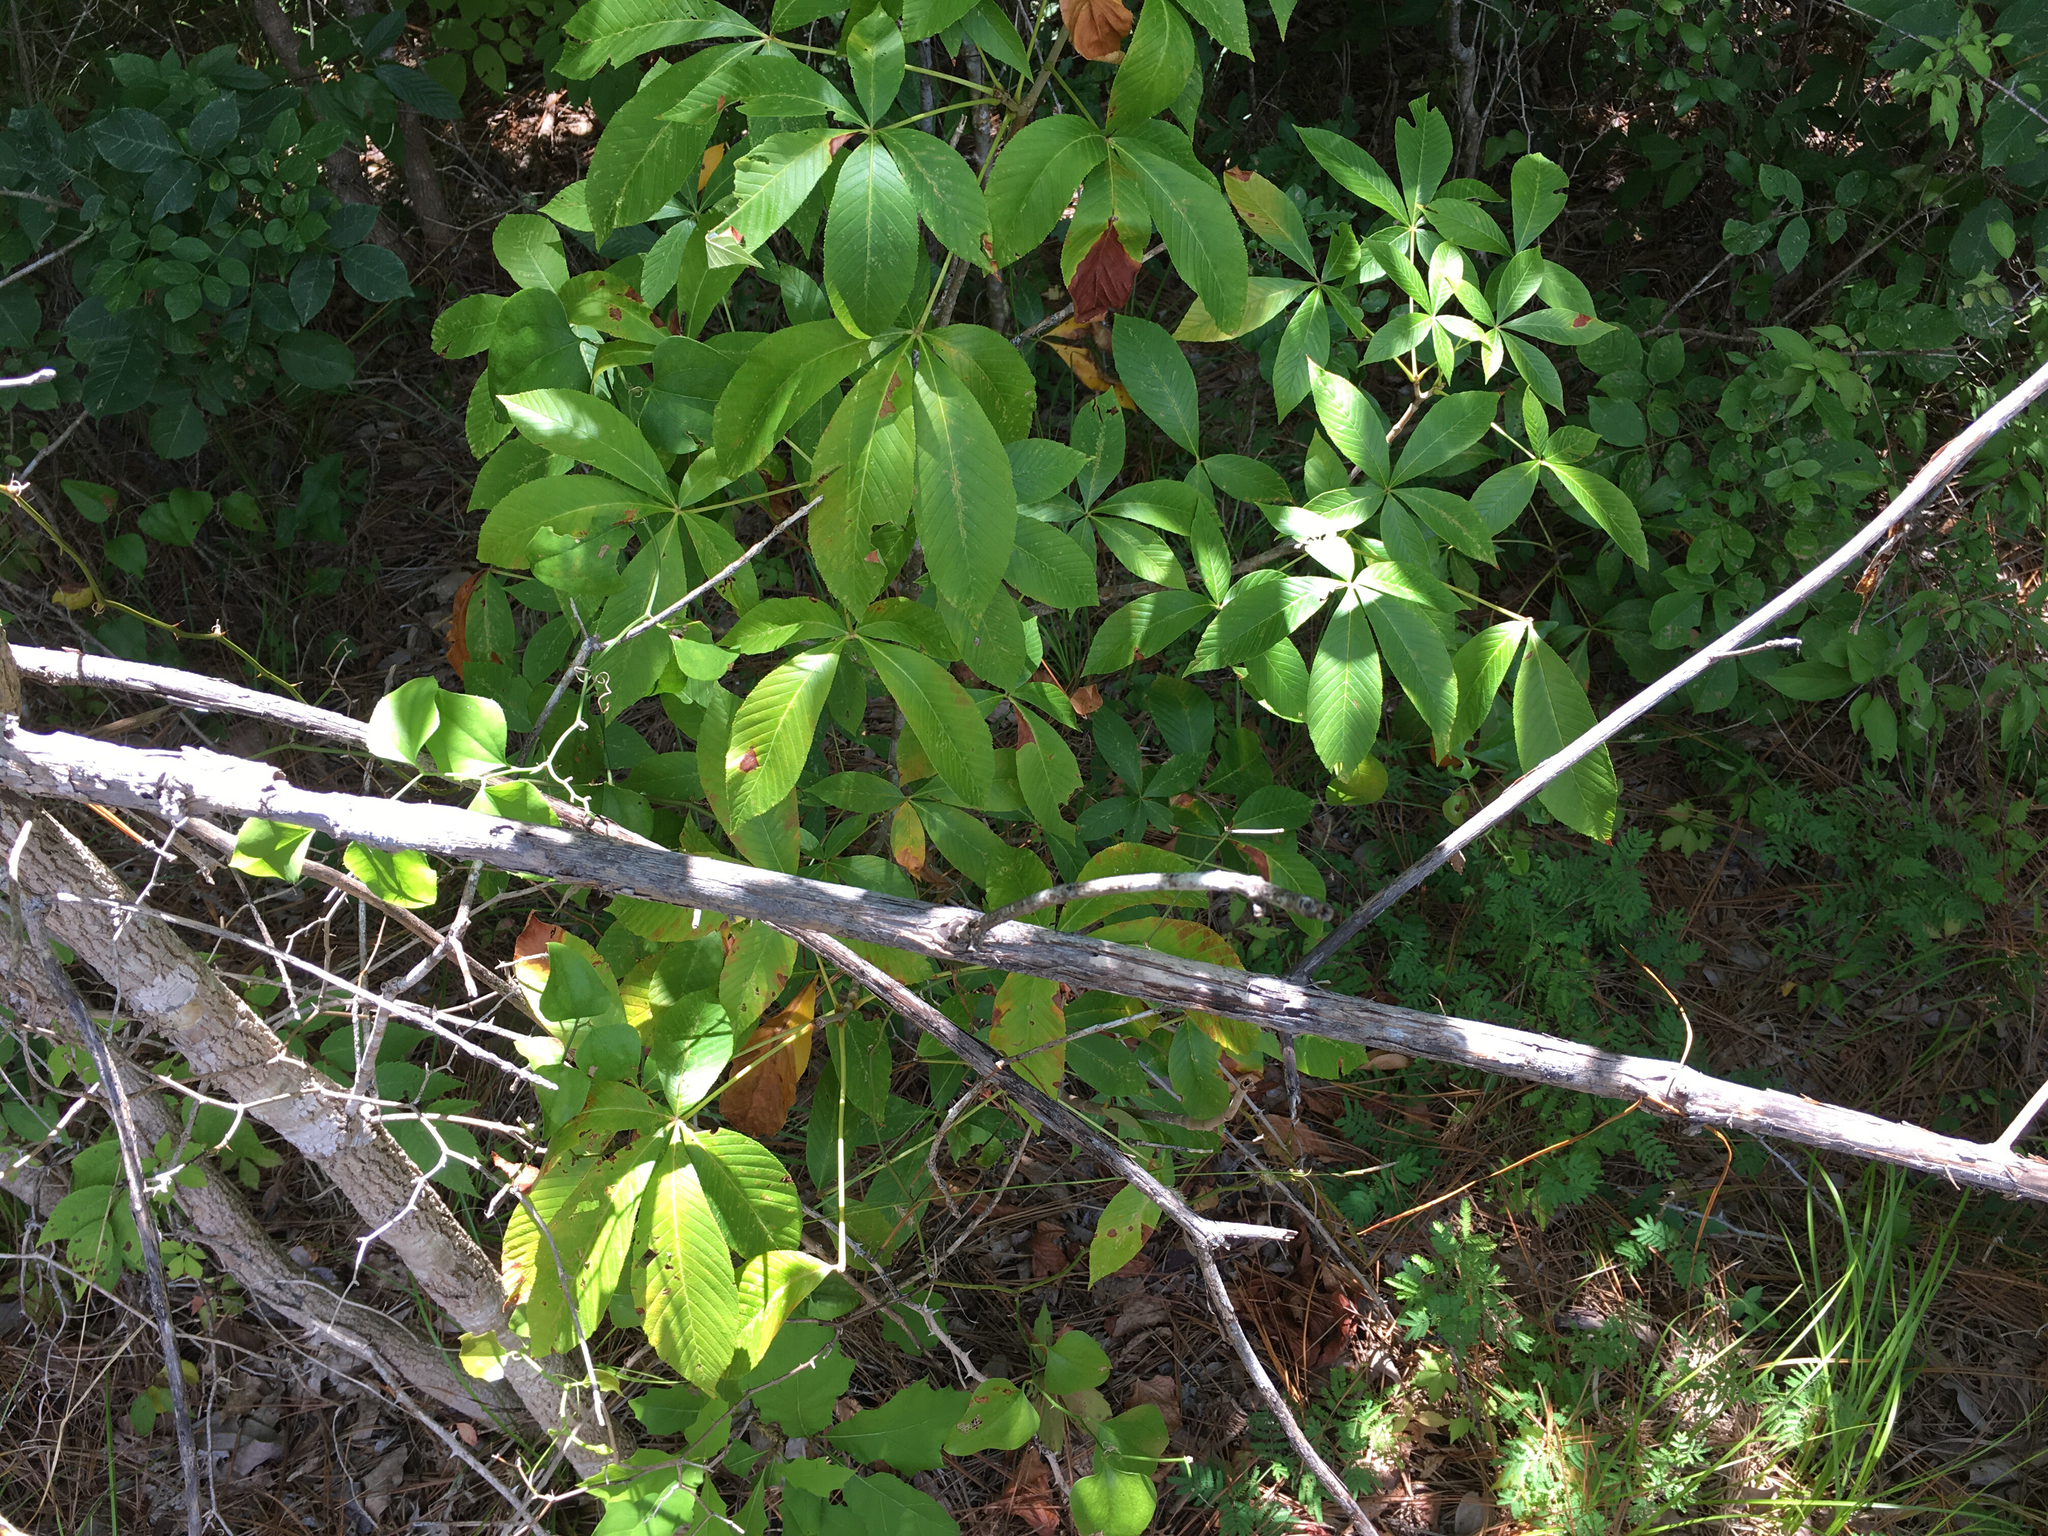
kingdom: Plantae
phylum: Tracheophyta
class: Magnoliopsida
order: Sapindales
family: Sapindaceae
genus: Aesculus
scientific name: Aesculus pavia
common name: Red buckeye
